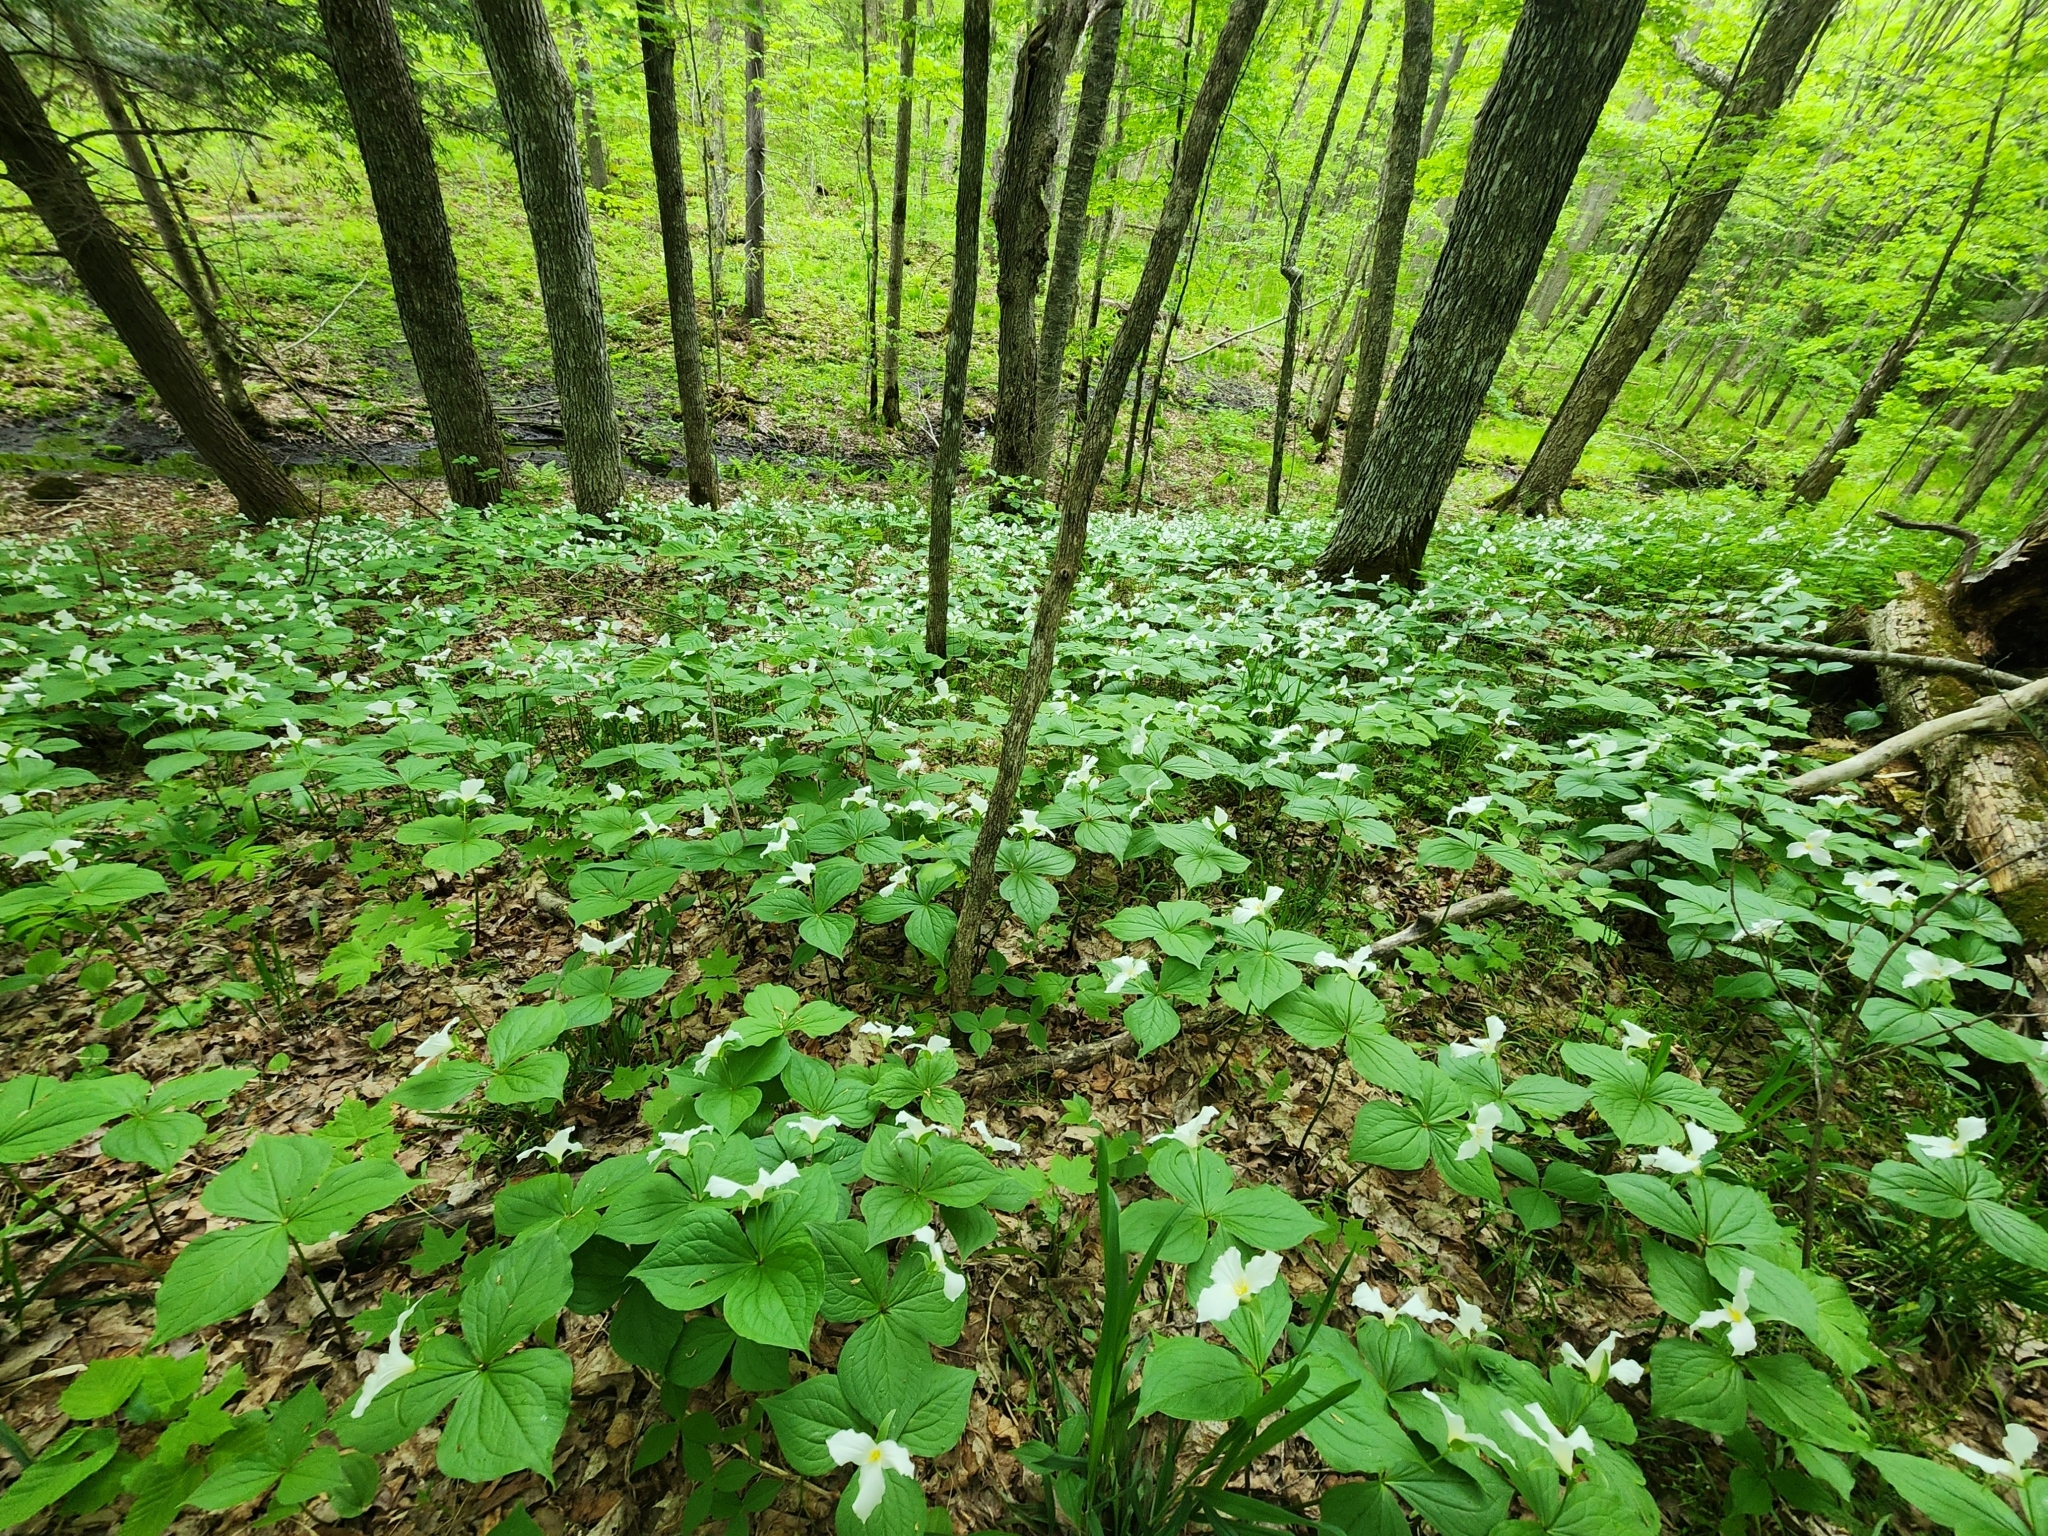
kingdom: Plantae
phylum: Tracheophyta
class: Liliopsida
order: Liliales
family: Melanthiaceae
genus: Trillium
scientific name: Trillium grandiflorum
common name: Great white trillium
